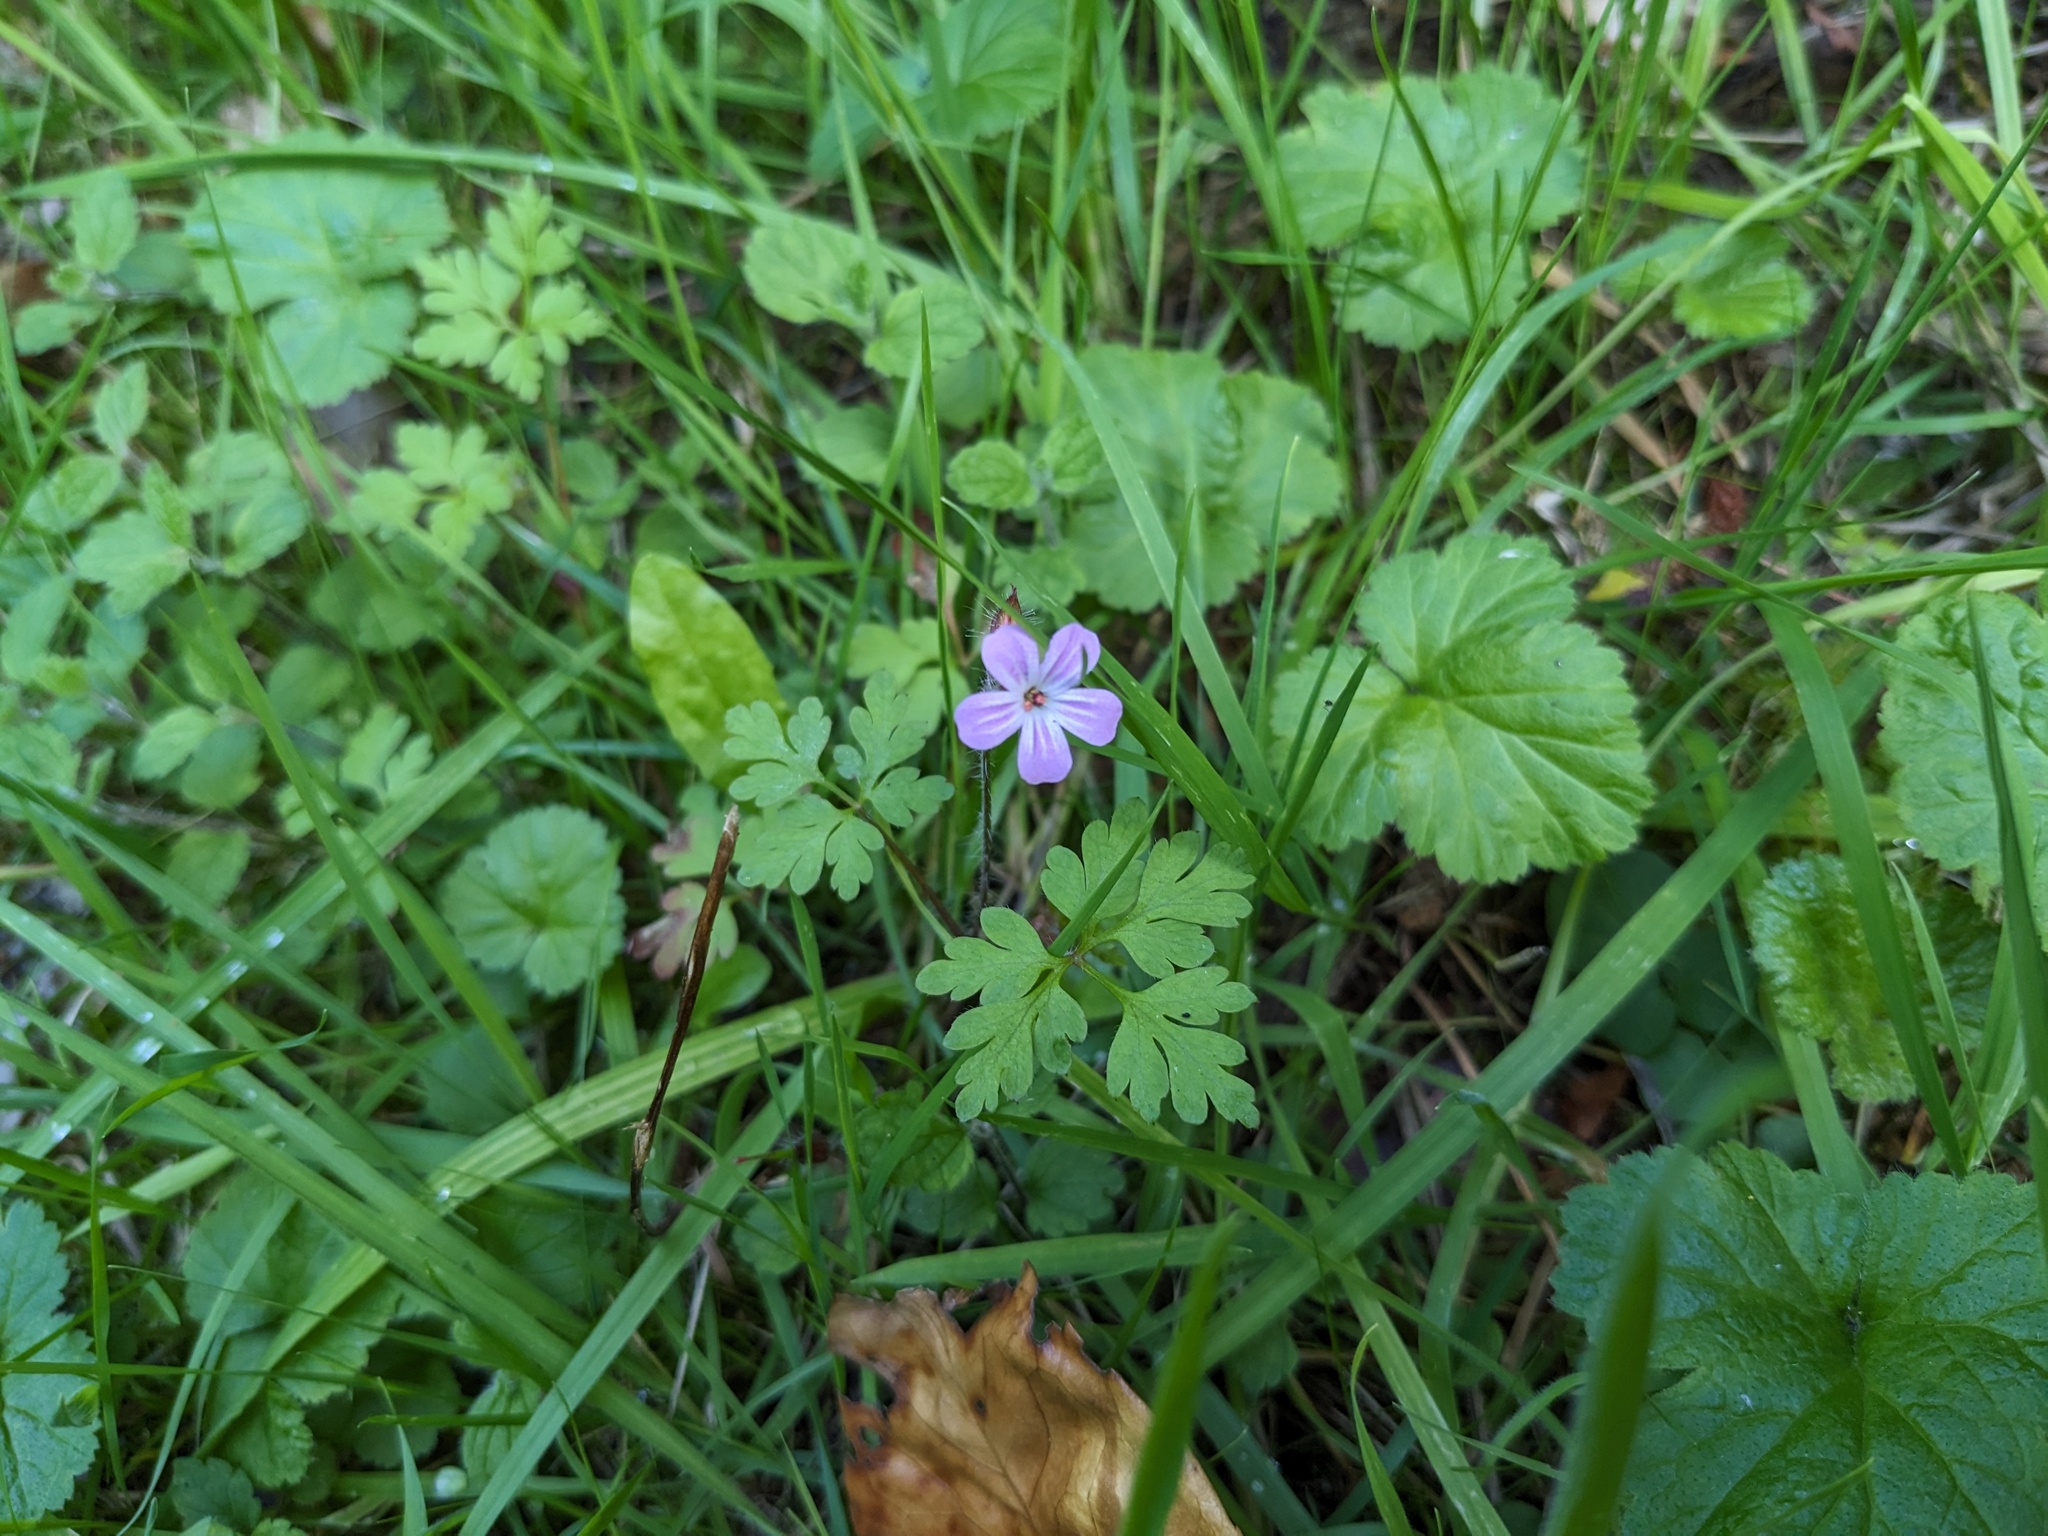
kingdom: Plantae
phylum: Tracheophyta
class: Magnoliopsida
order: Geraniales
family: Geraniaceae
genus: Geranium
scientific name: Geranium robertianum
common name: Herb-robert
